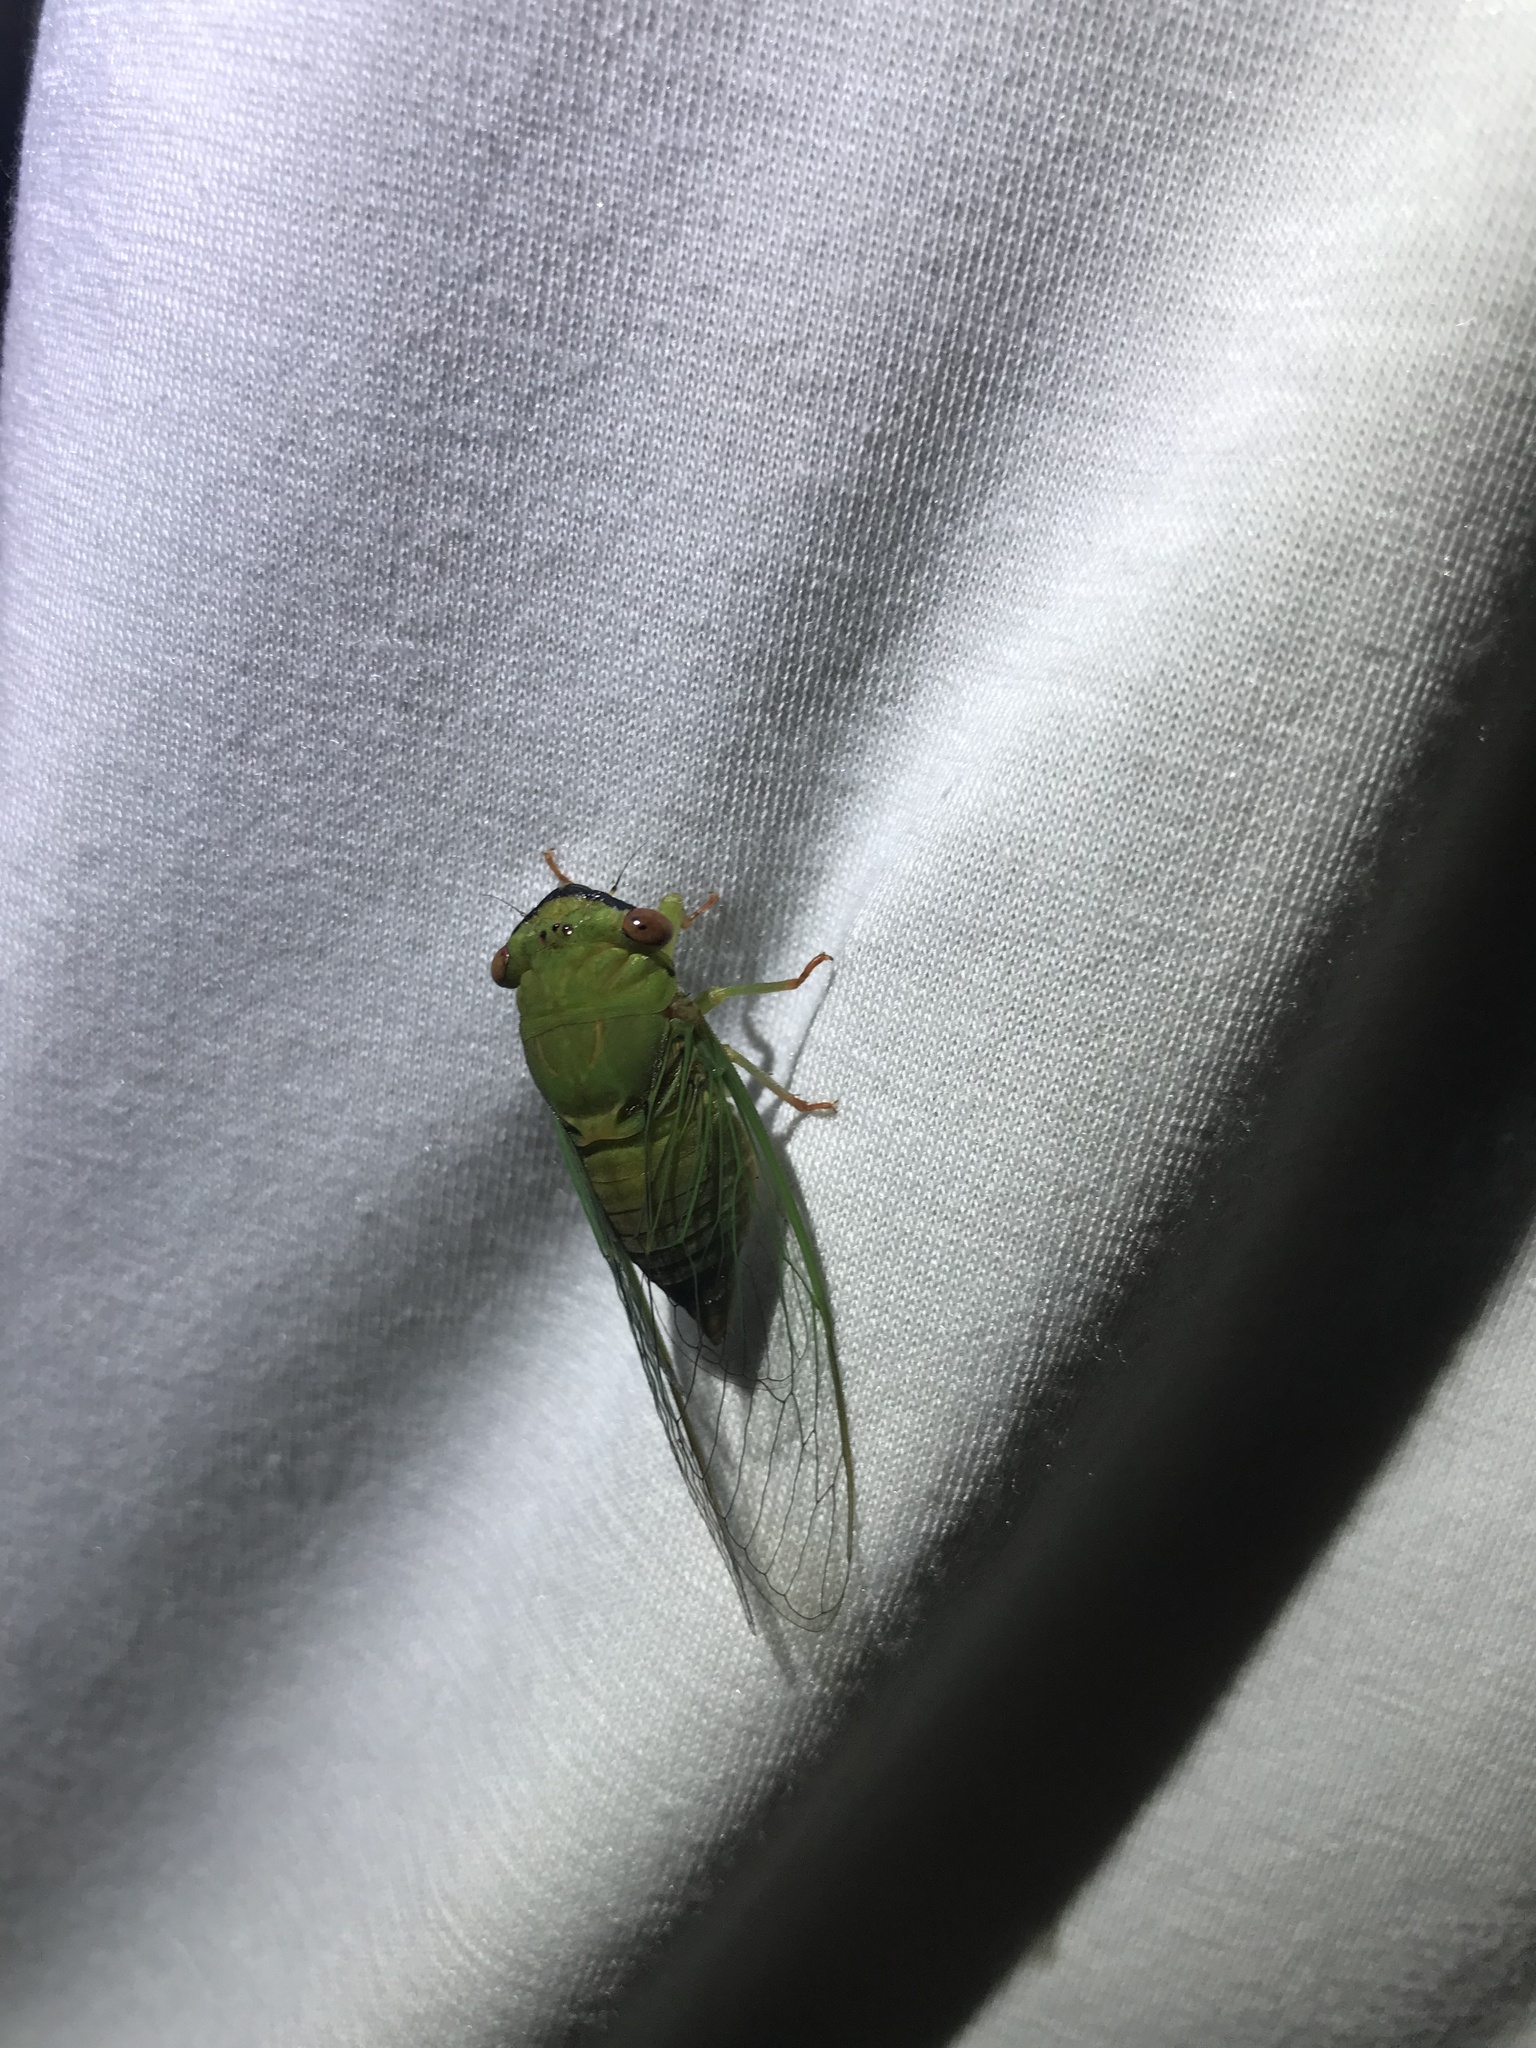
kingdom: Animalia
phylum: Arthropoda
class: Insecta
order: Hemiptera
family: Cicadidae
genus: Chremistica
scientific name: Chremistica ochracea
